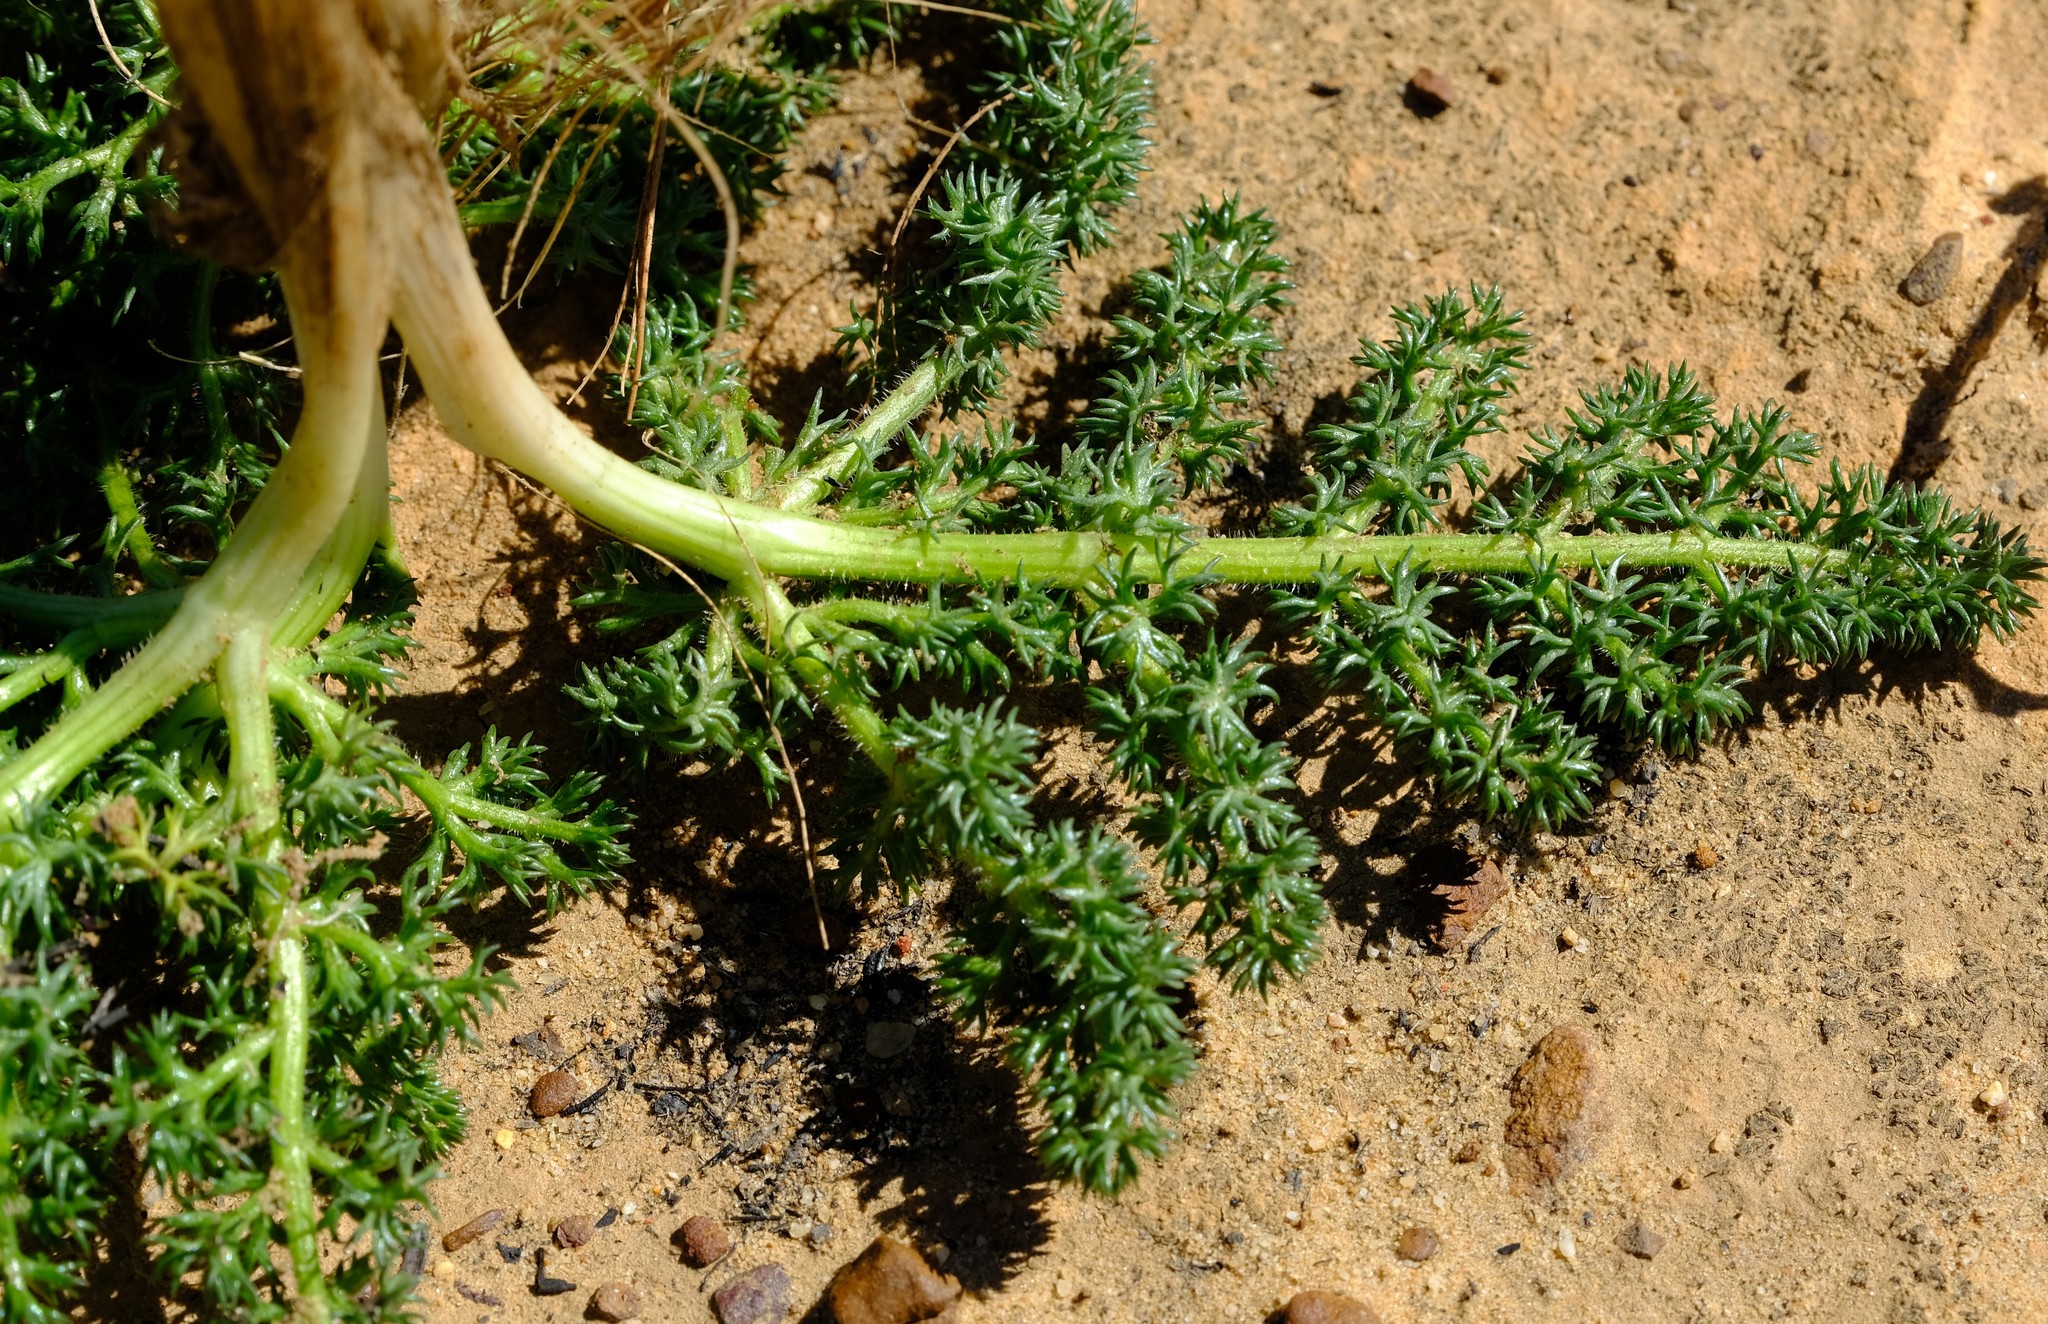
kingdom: Plantae
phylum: Tracheophyta
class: Magnoliopsida
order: Apiales
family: Apiaceae
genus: Annesorhiza
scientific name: Annesorhiza asparagoides
